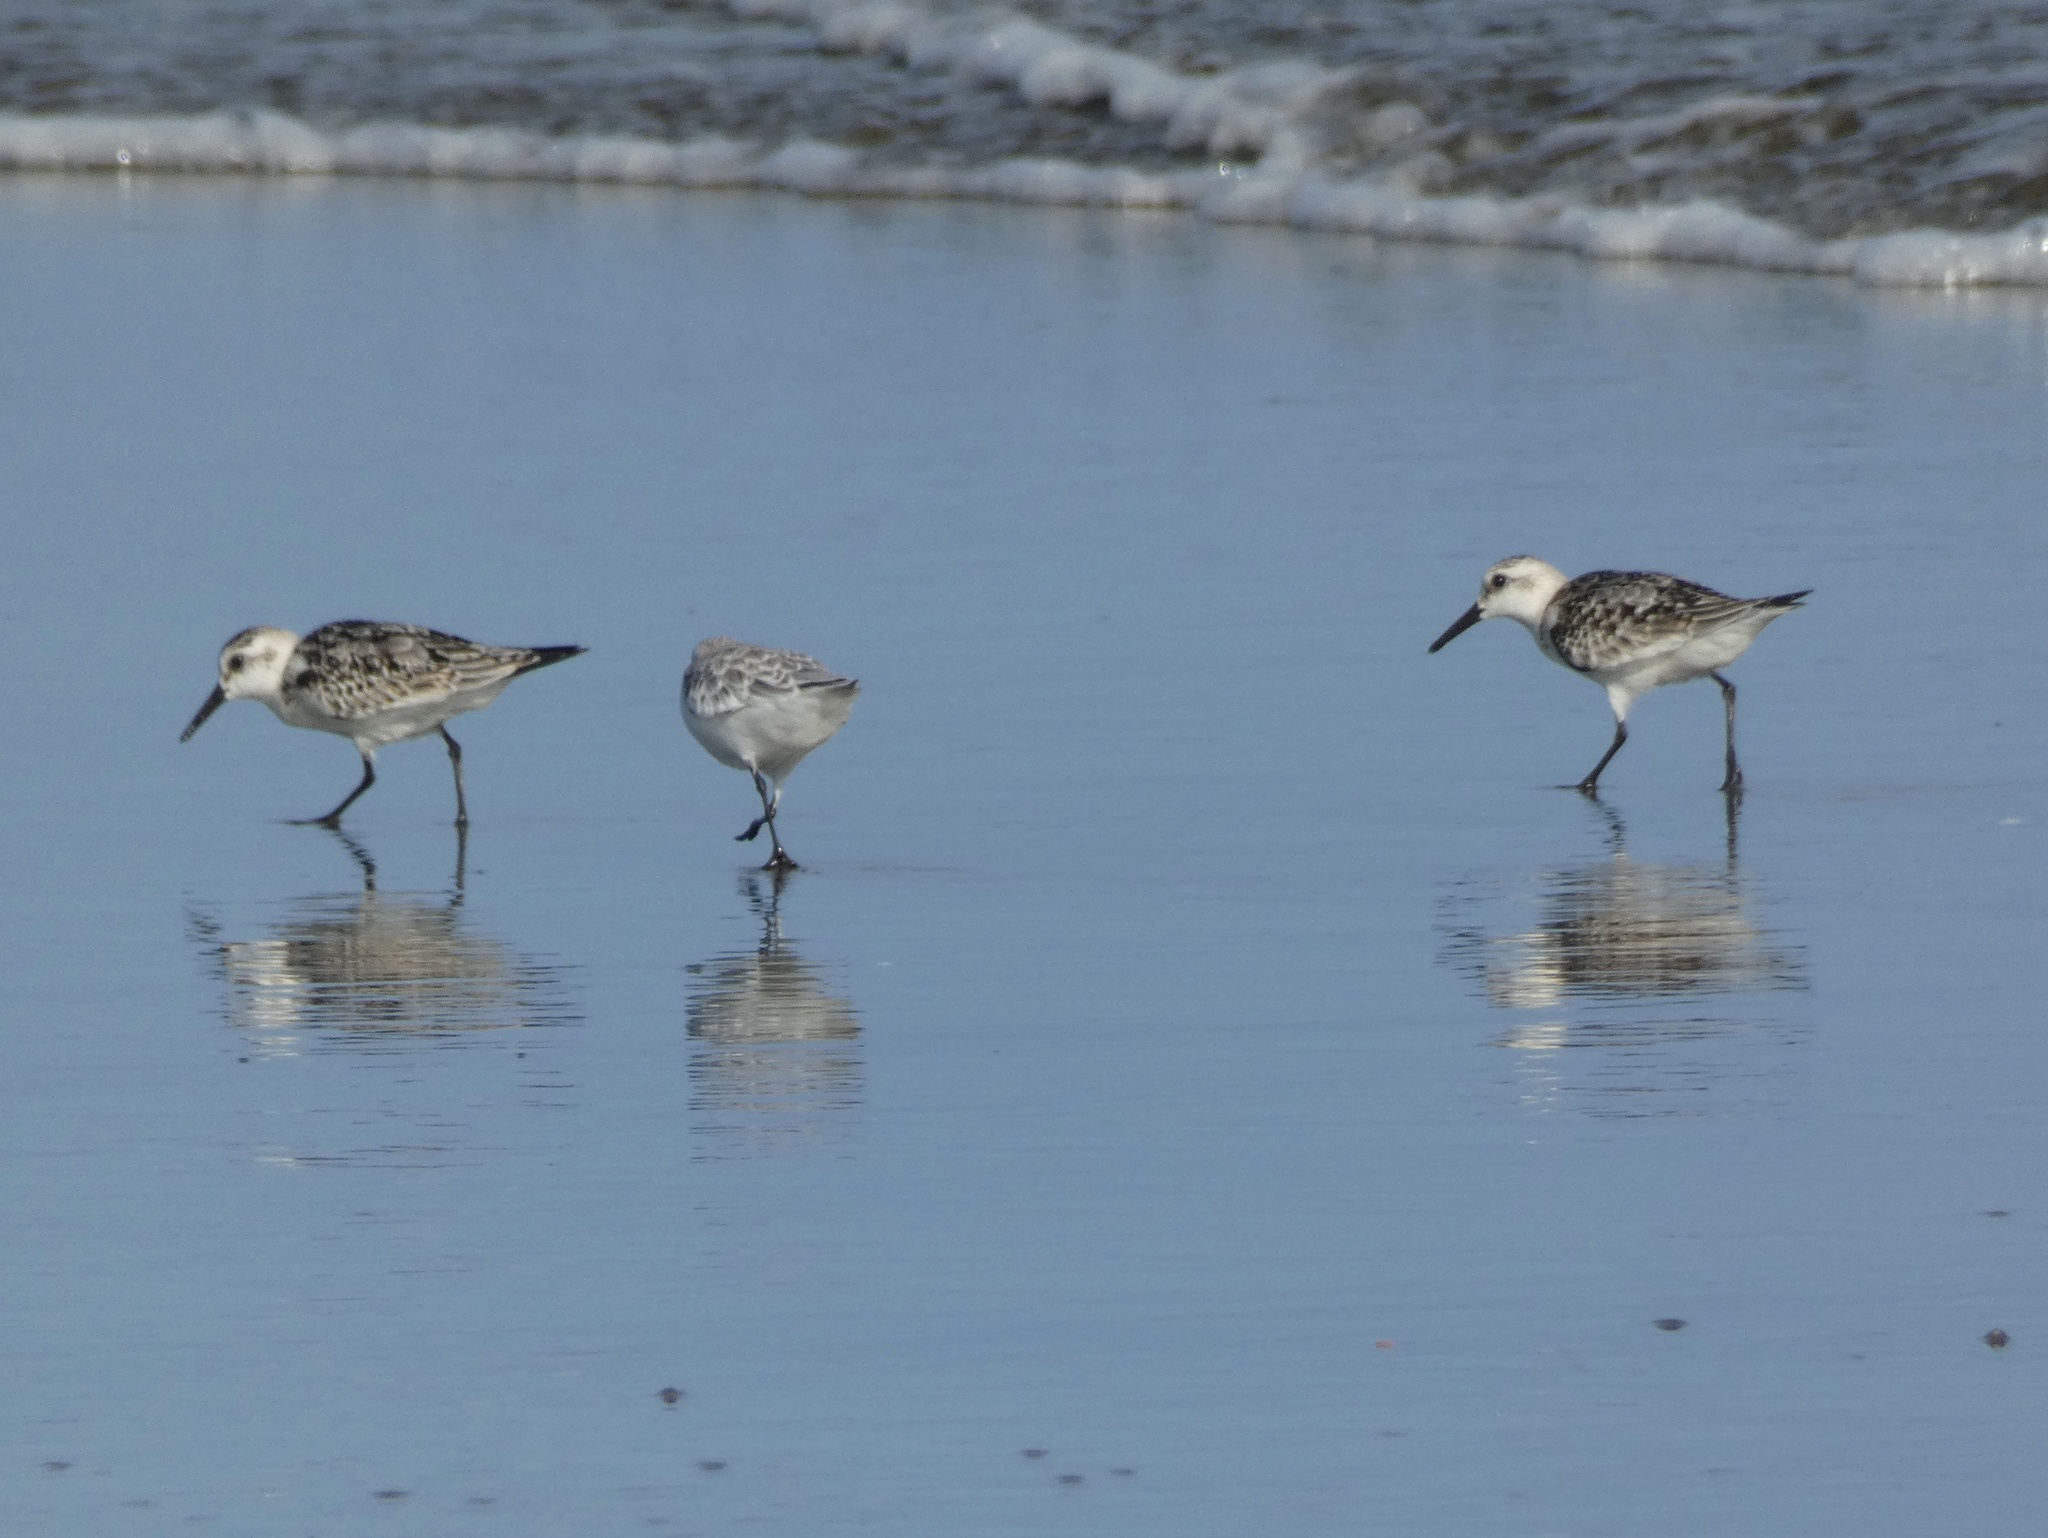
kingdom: Animalia
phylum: Chordata
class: Aves
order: Charadriiformes
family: Scolopacidae
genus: Calidris
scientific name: Calidris alba
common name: Sanderling
